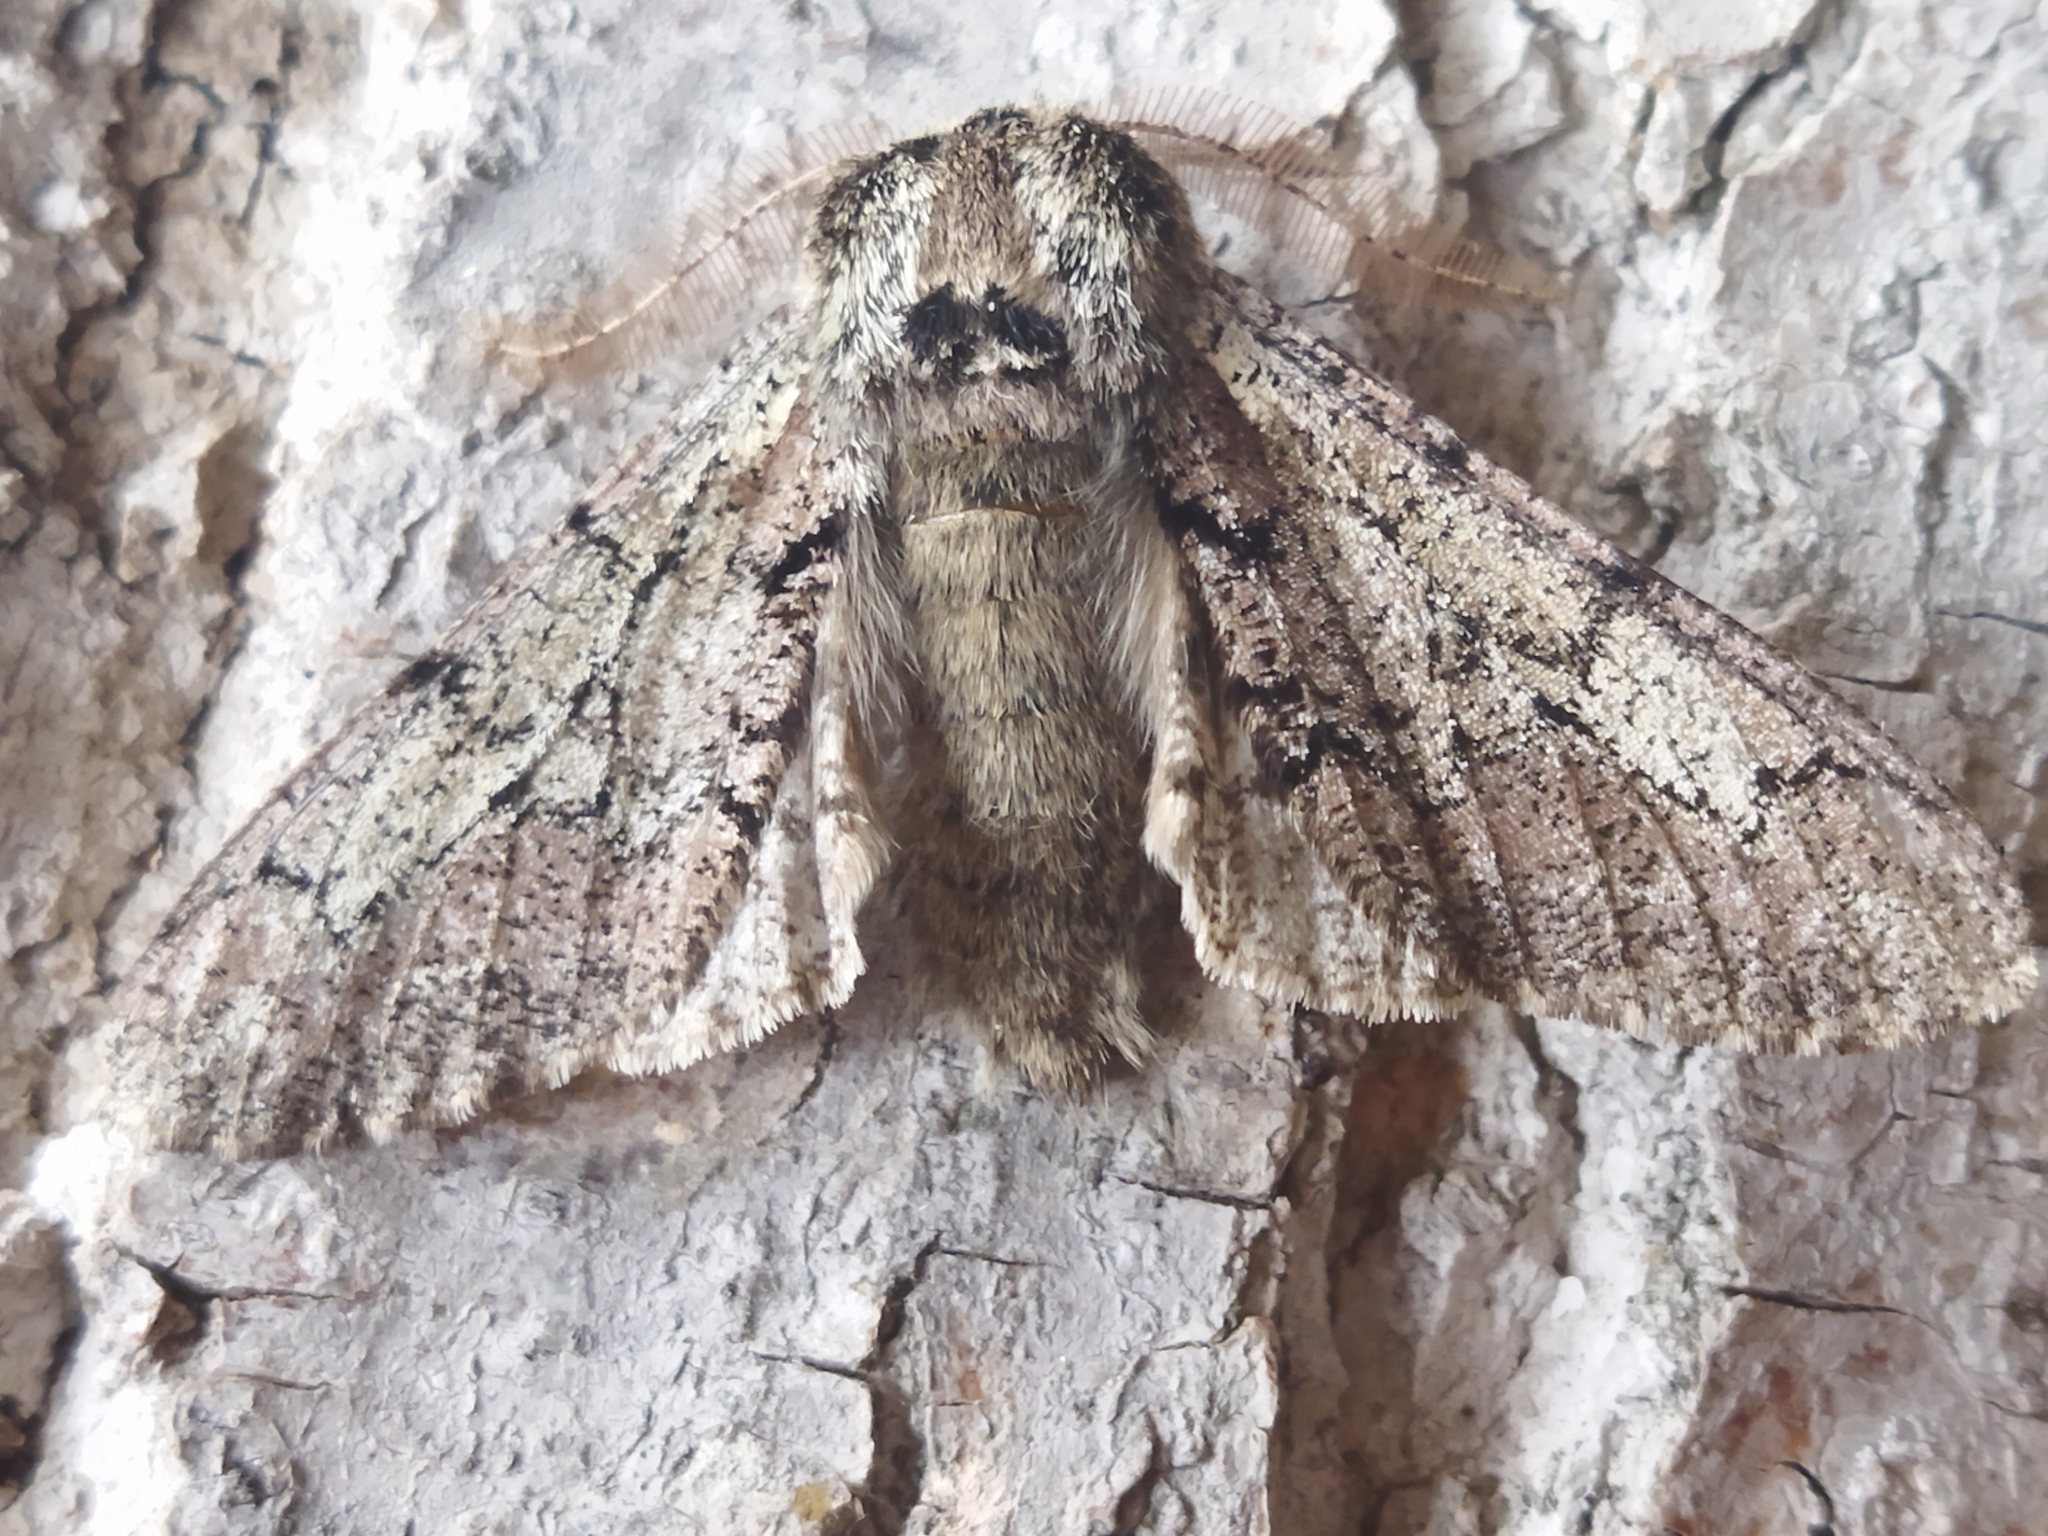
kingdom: Animalia
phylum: Arthropoda
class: Insecta
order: Lepidoptera
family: Geometridae
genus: Biston
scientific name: Biston strataria
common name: Oak beauty
